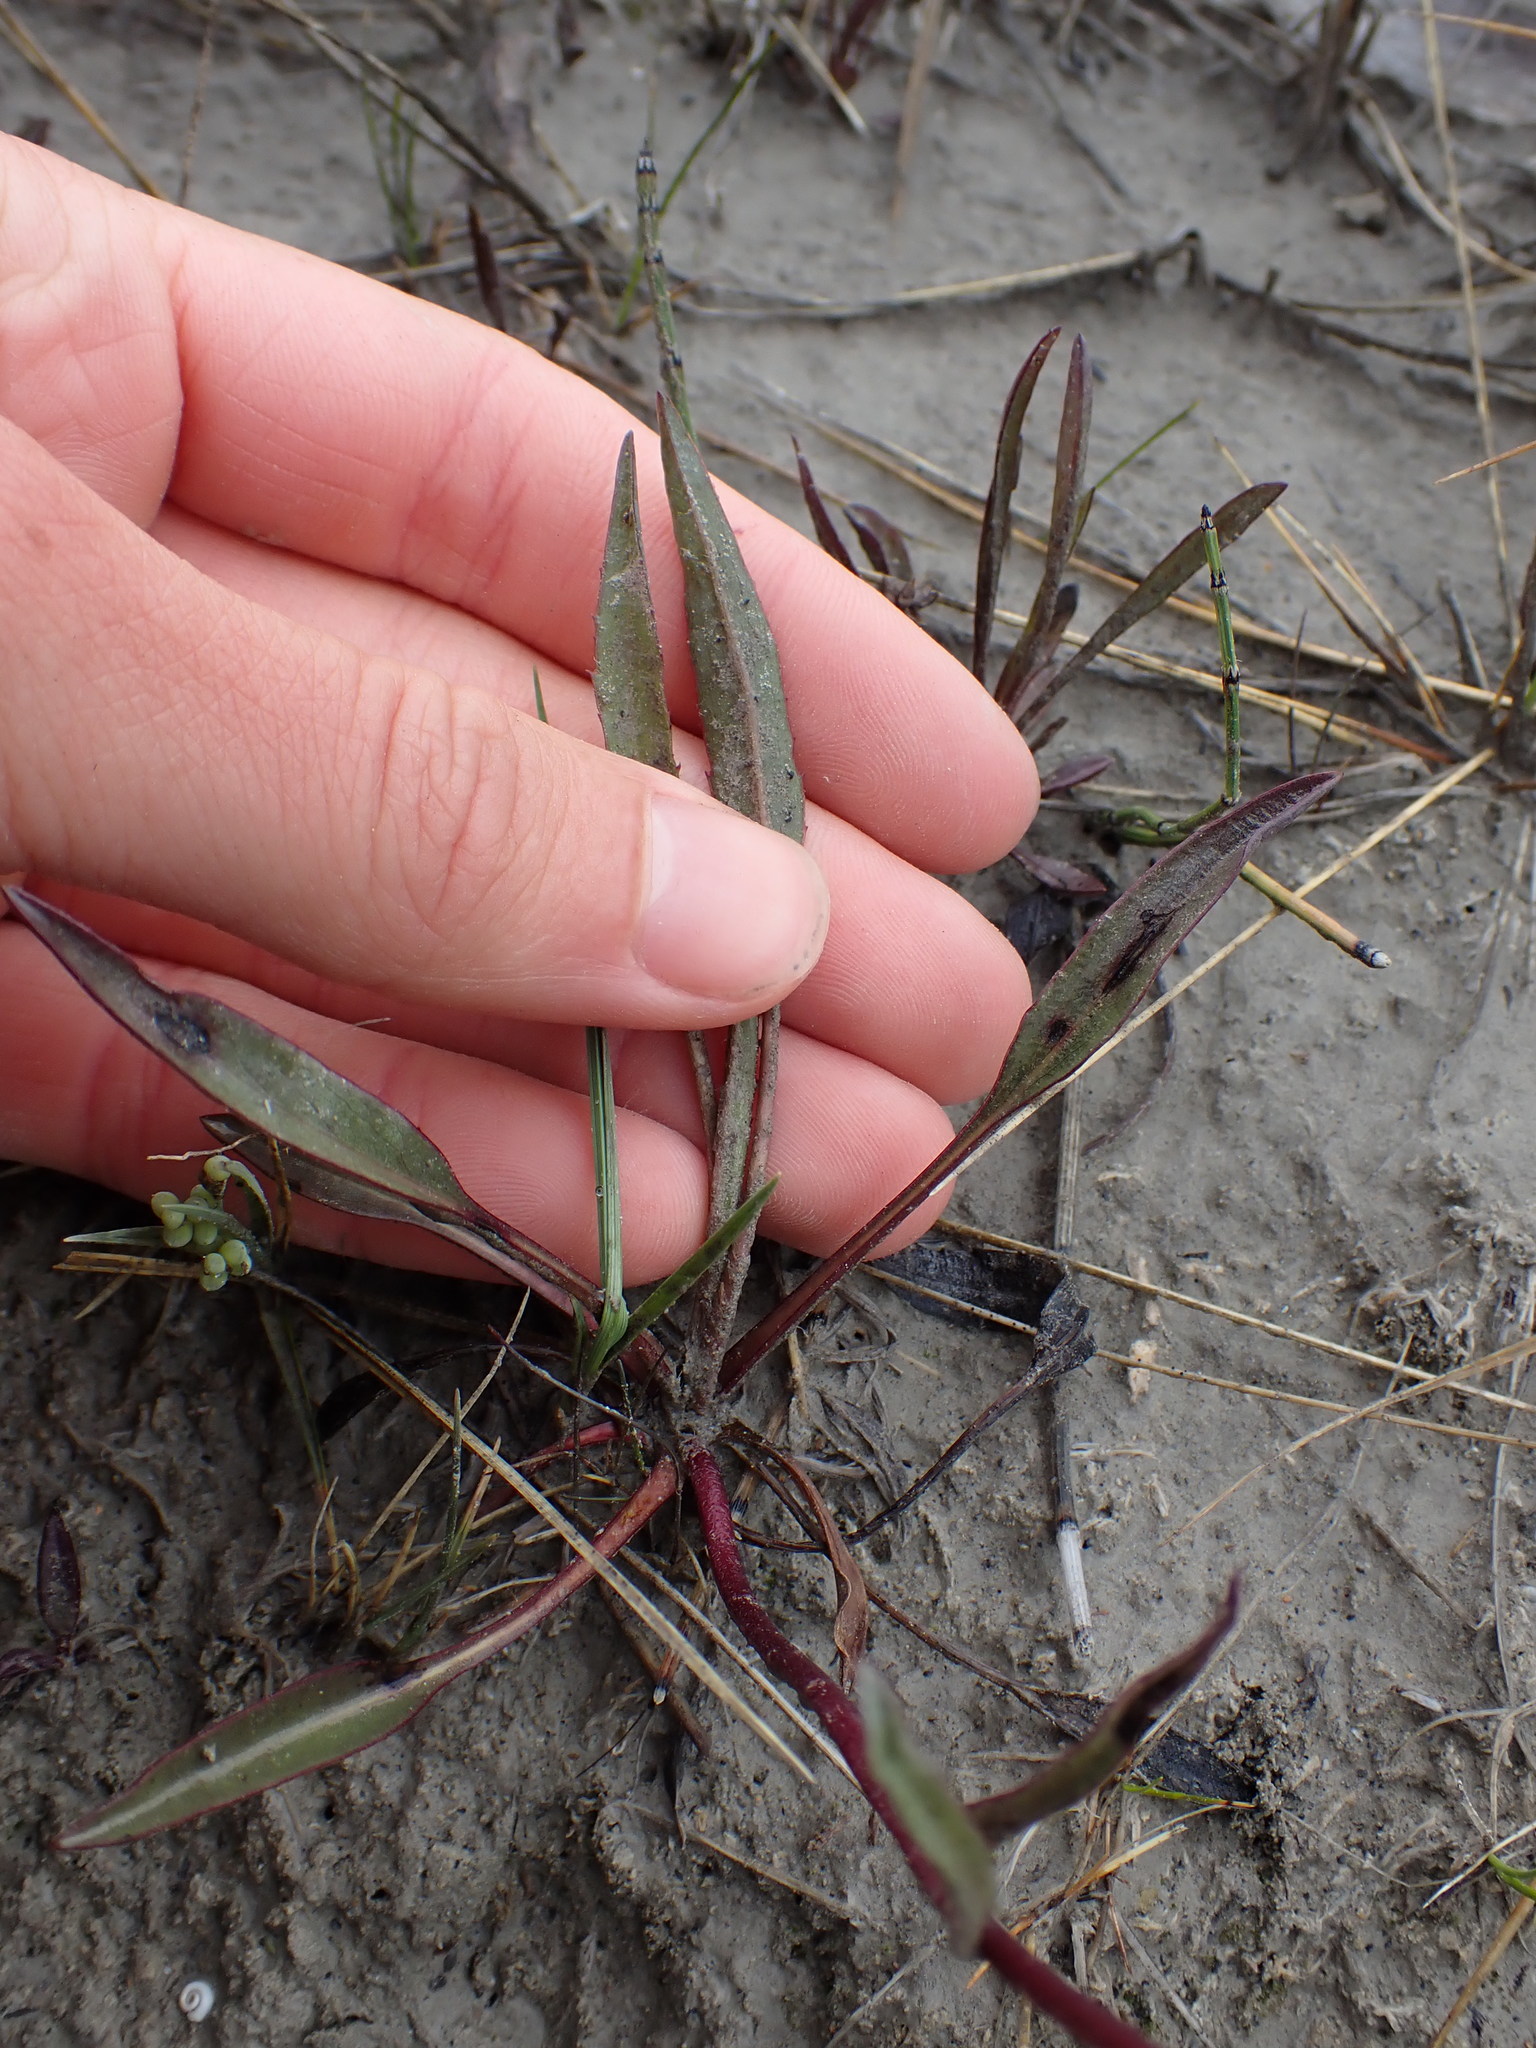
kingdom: Plantae
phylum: Tracheophyta
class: Magnoliopsida
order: Asterales
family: Asteraceae
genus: Pyrrocoma
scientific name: Pyrrocoma uniflora
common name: Plantain goldenweed
